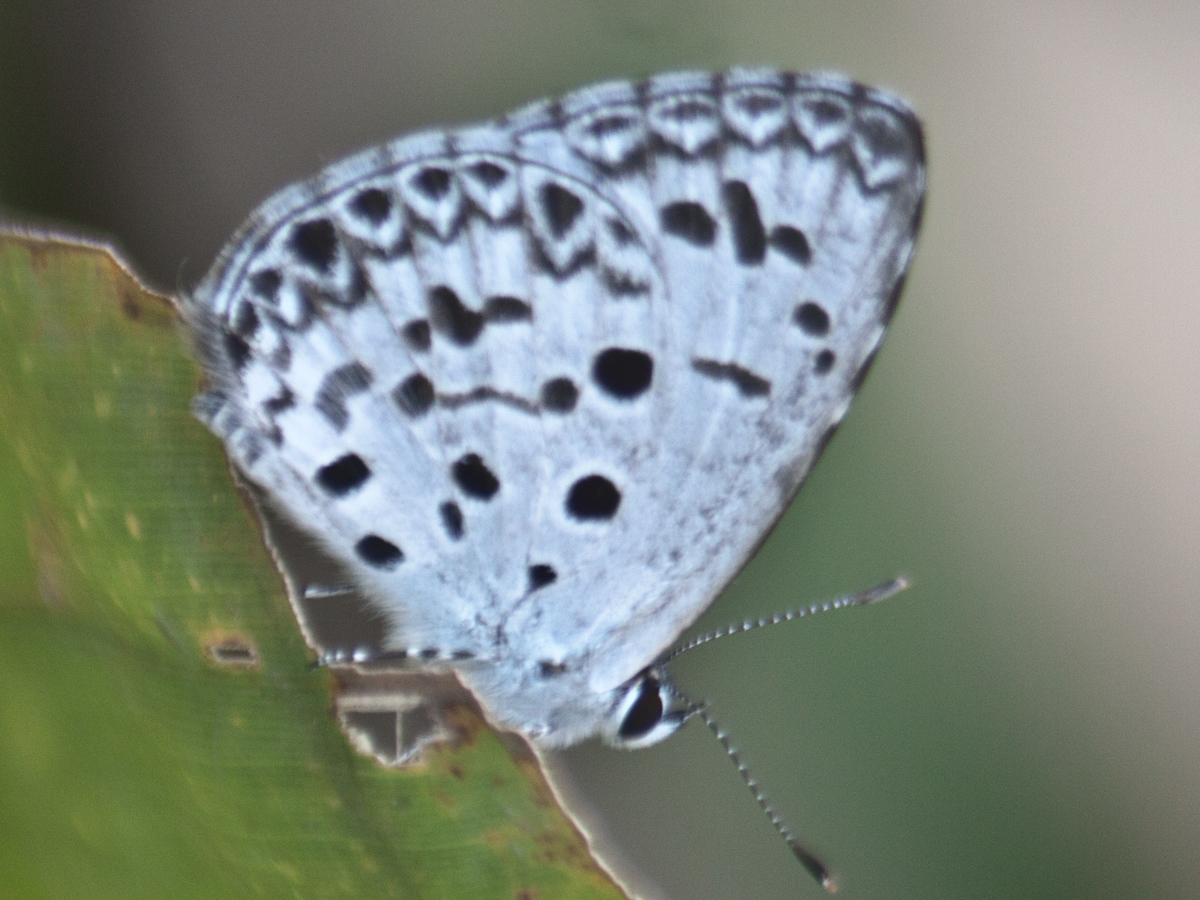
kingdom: Animalia
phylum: Arthropoda
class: Insecta
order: Lepidoptera
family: Lycaenidae
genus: Acytolepis
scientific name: Acytolepis puspa
